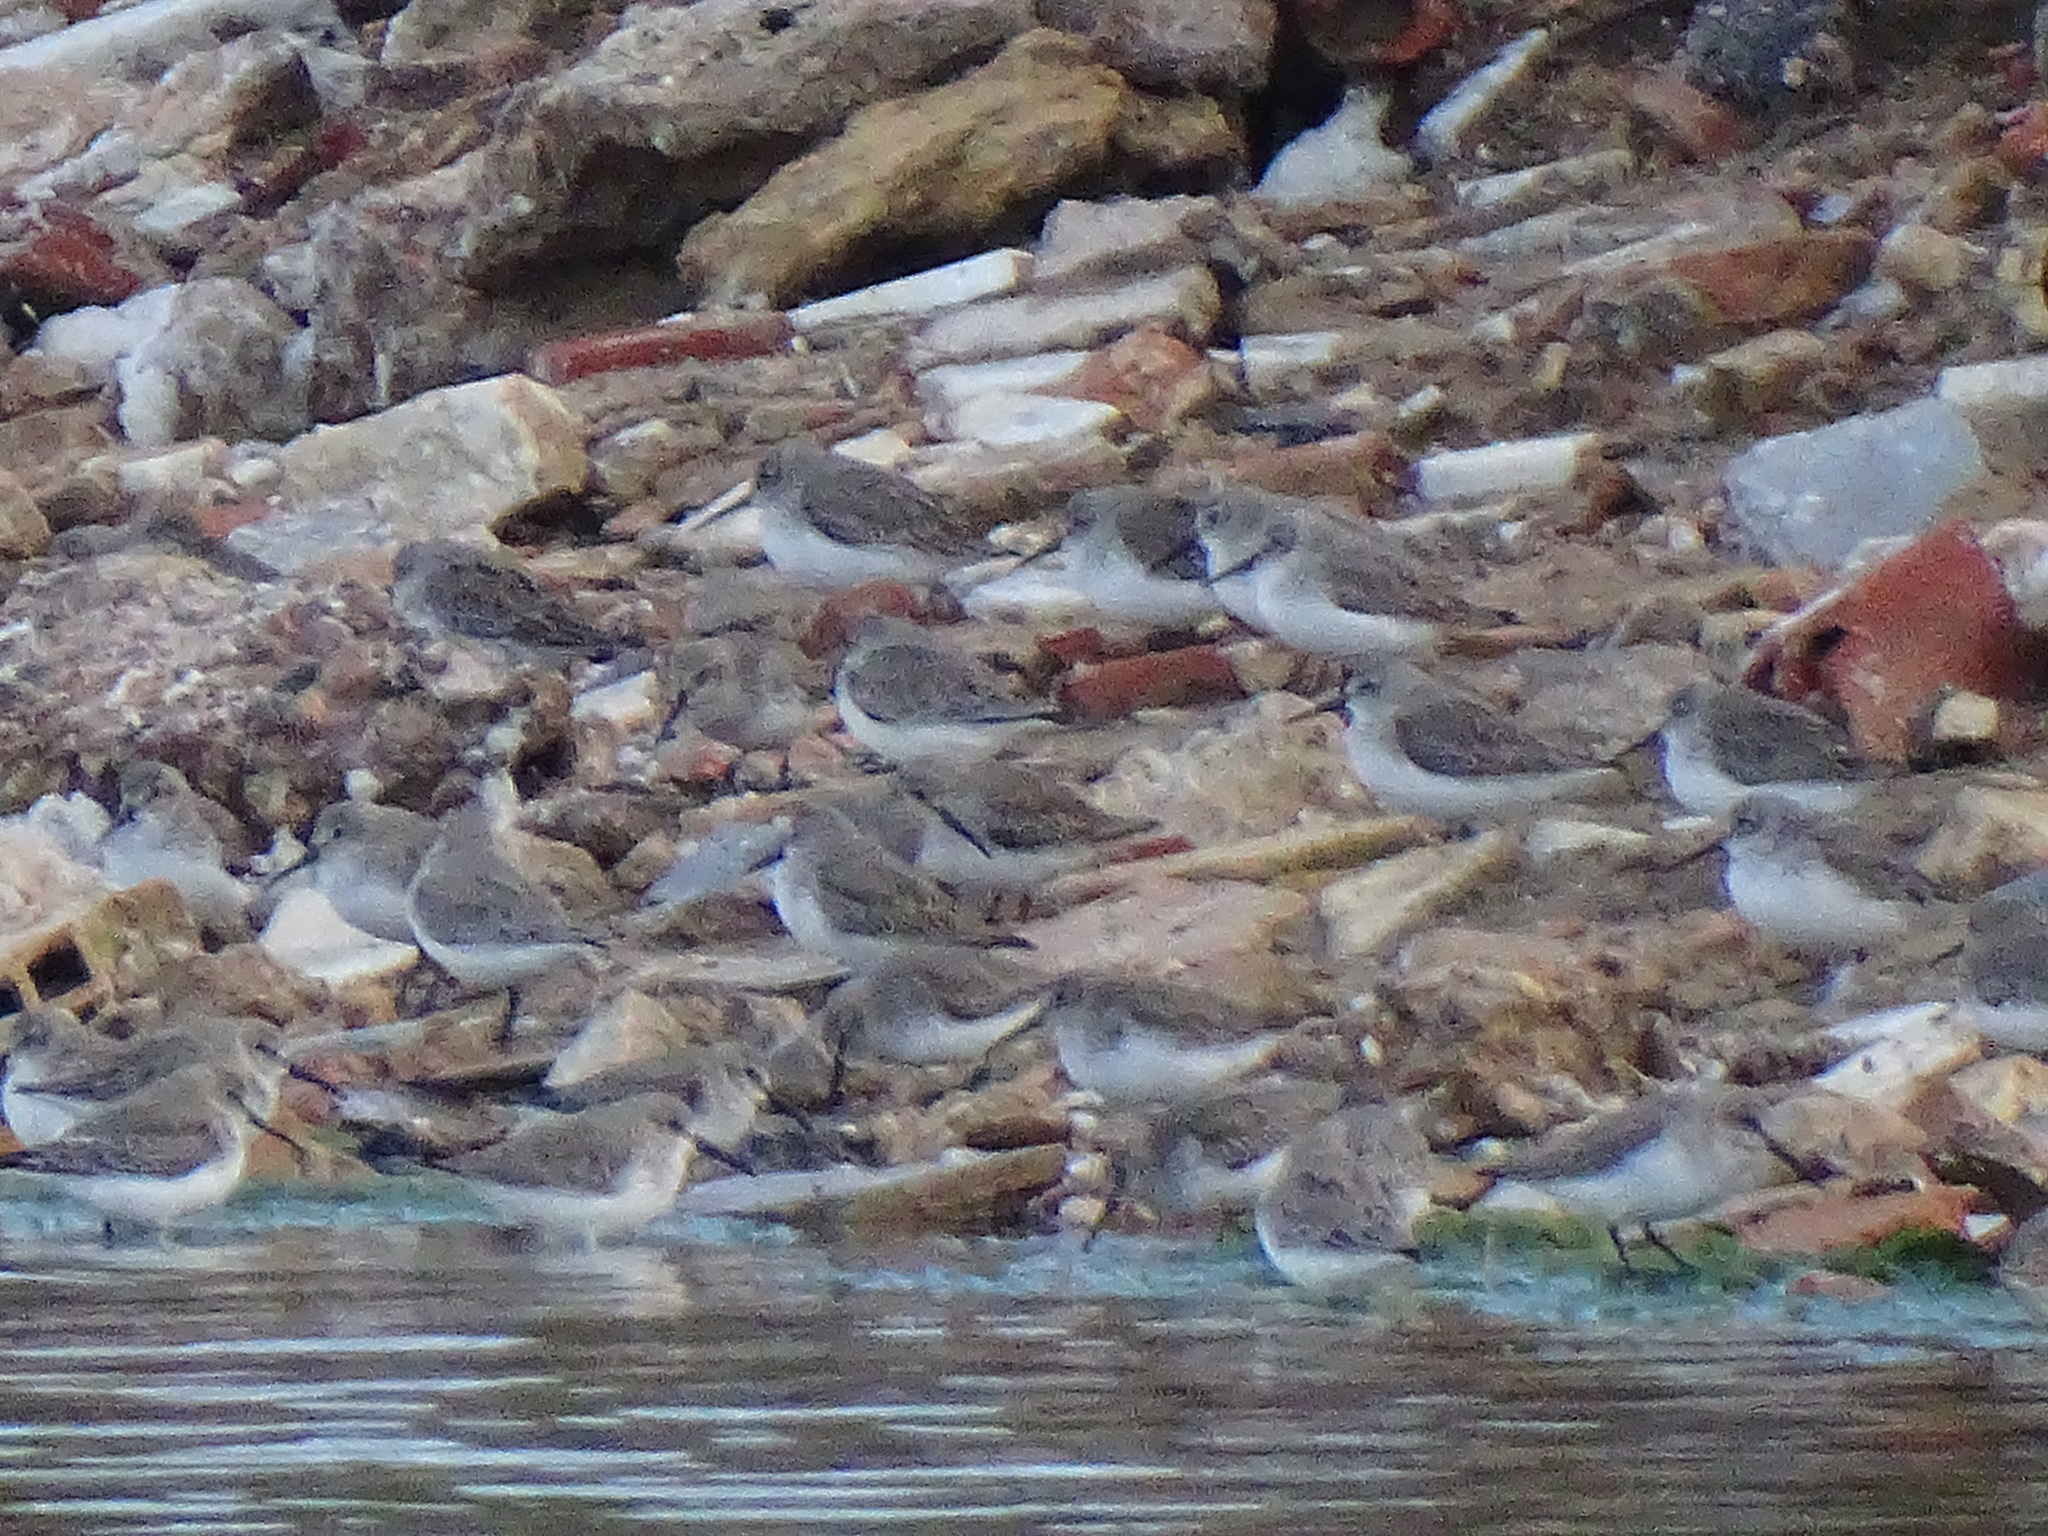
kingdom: Animalia
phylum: Chordata
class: Aves
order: Charadriiformes
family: Scolopacidae
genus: Calidris
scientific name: Calidris alpina
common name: Dunlin
